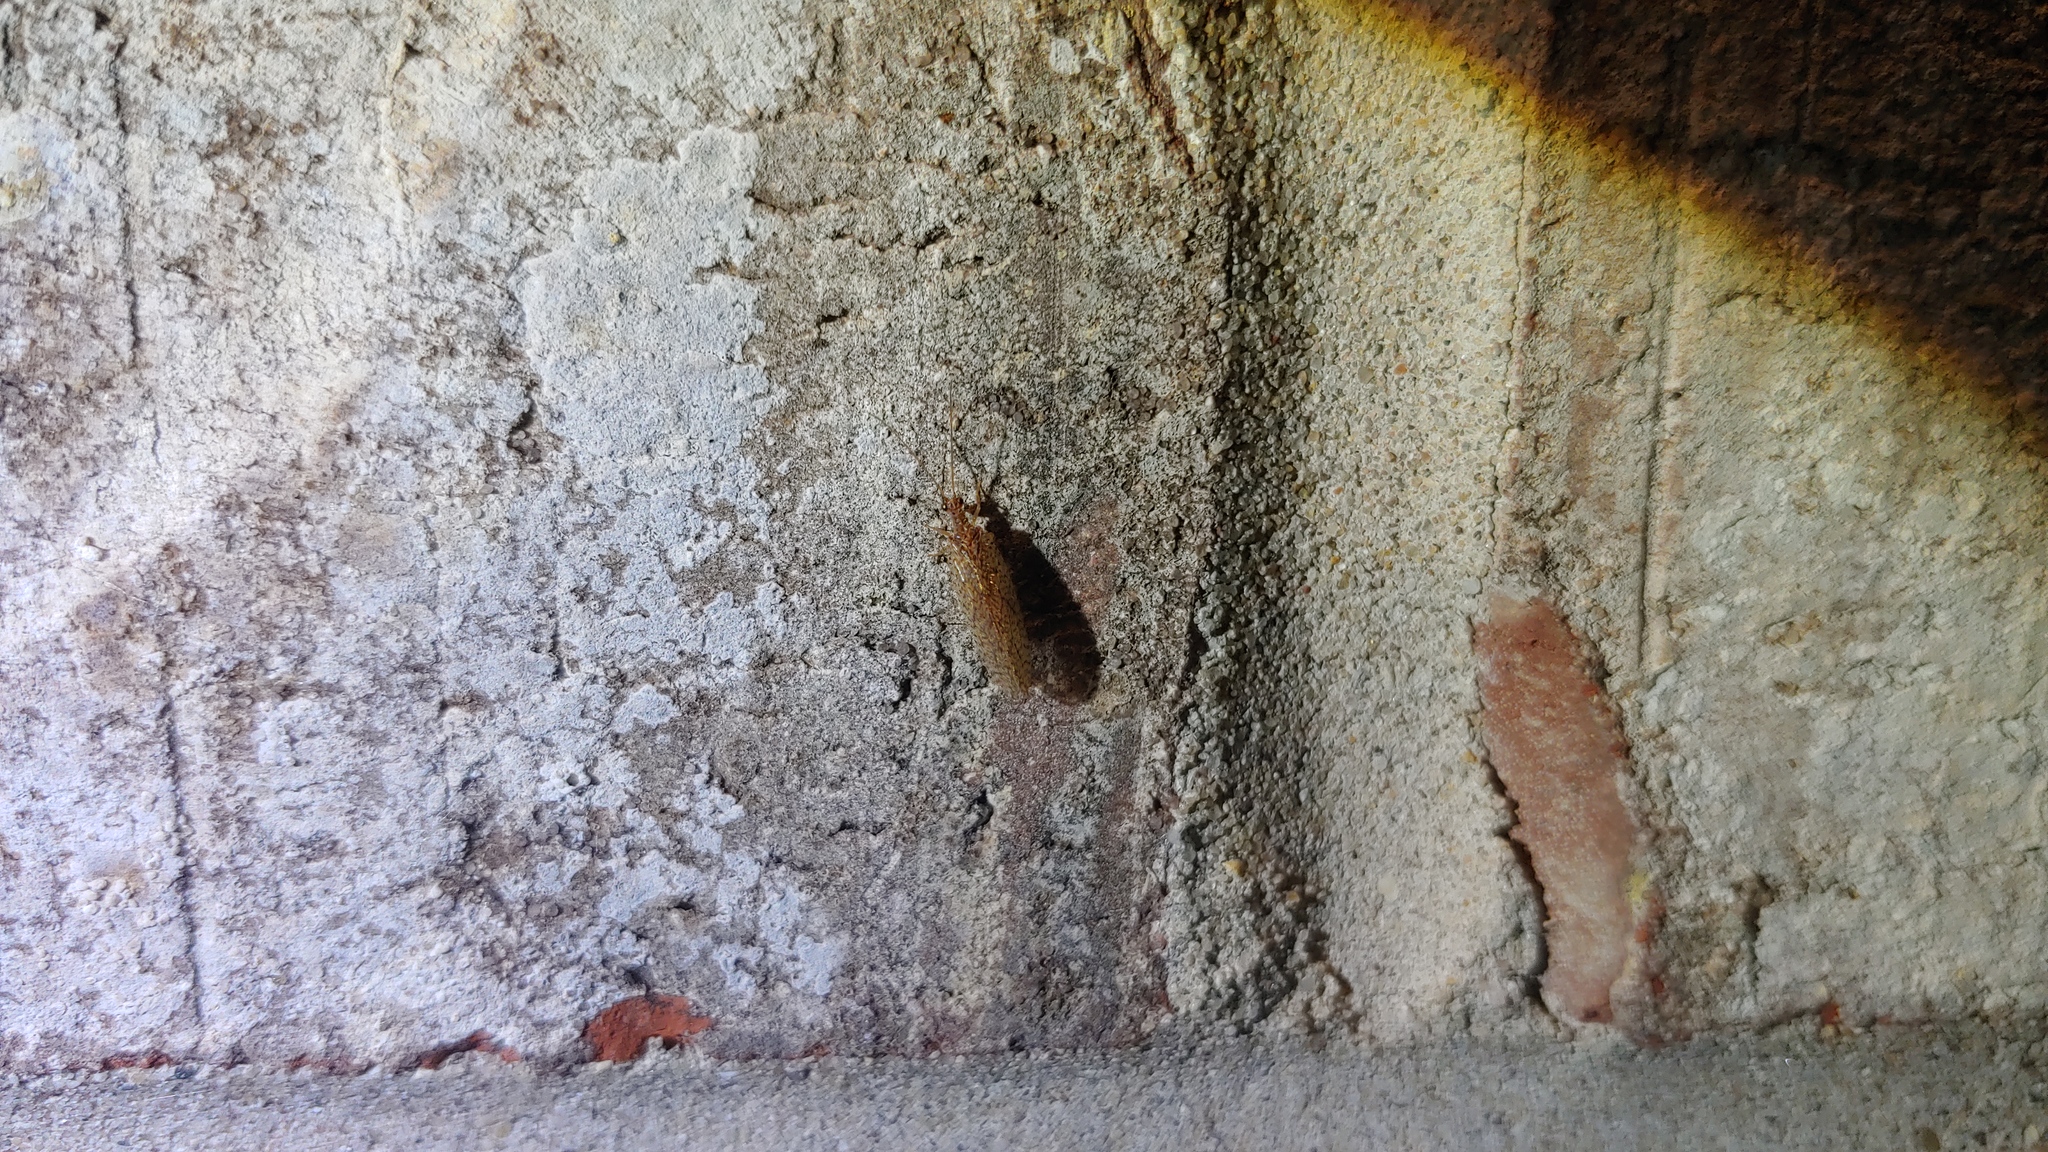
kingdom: Animalia
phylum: Arthropoda
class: Insecta
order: Neuroptera
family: Hemerobiidae
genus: Micromus
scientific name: Micromus posticus
